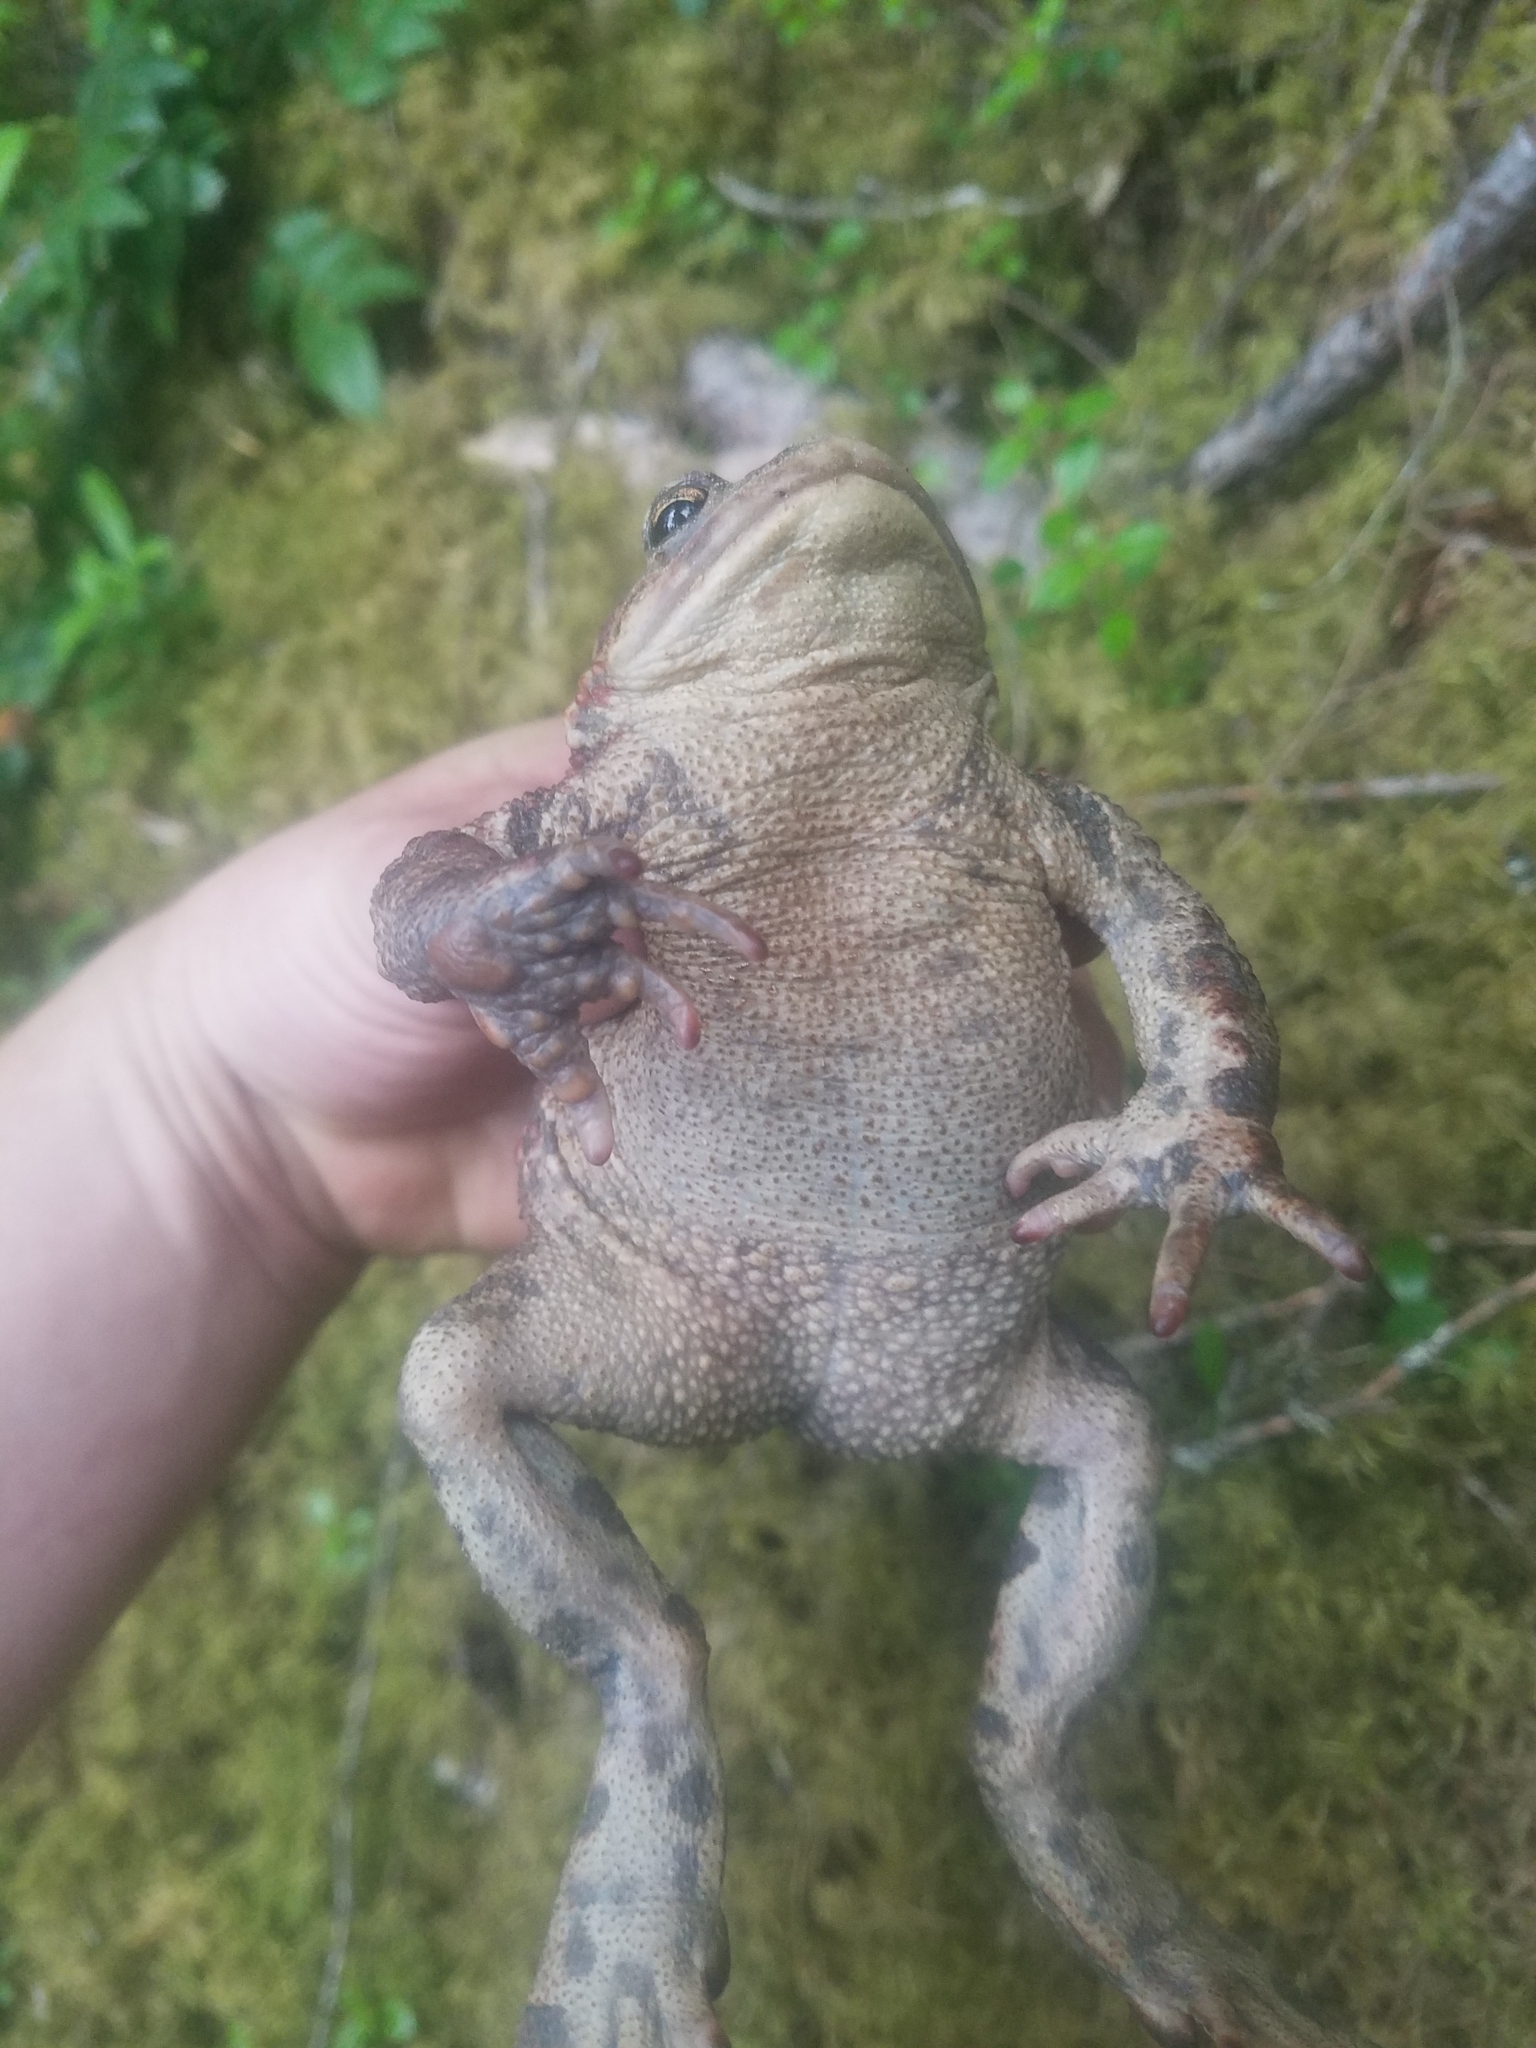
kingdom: Animalia
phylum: Chordata
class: Amphibia
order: Anura
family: Bufonidae
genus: Anaxyrus
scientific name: Anaxyrus boreas
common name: Western toad
